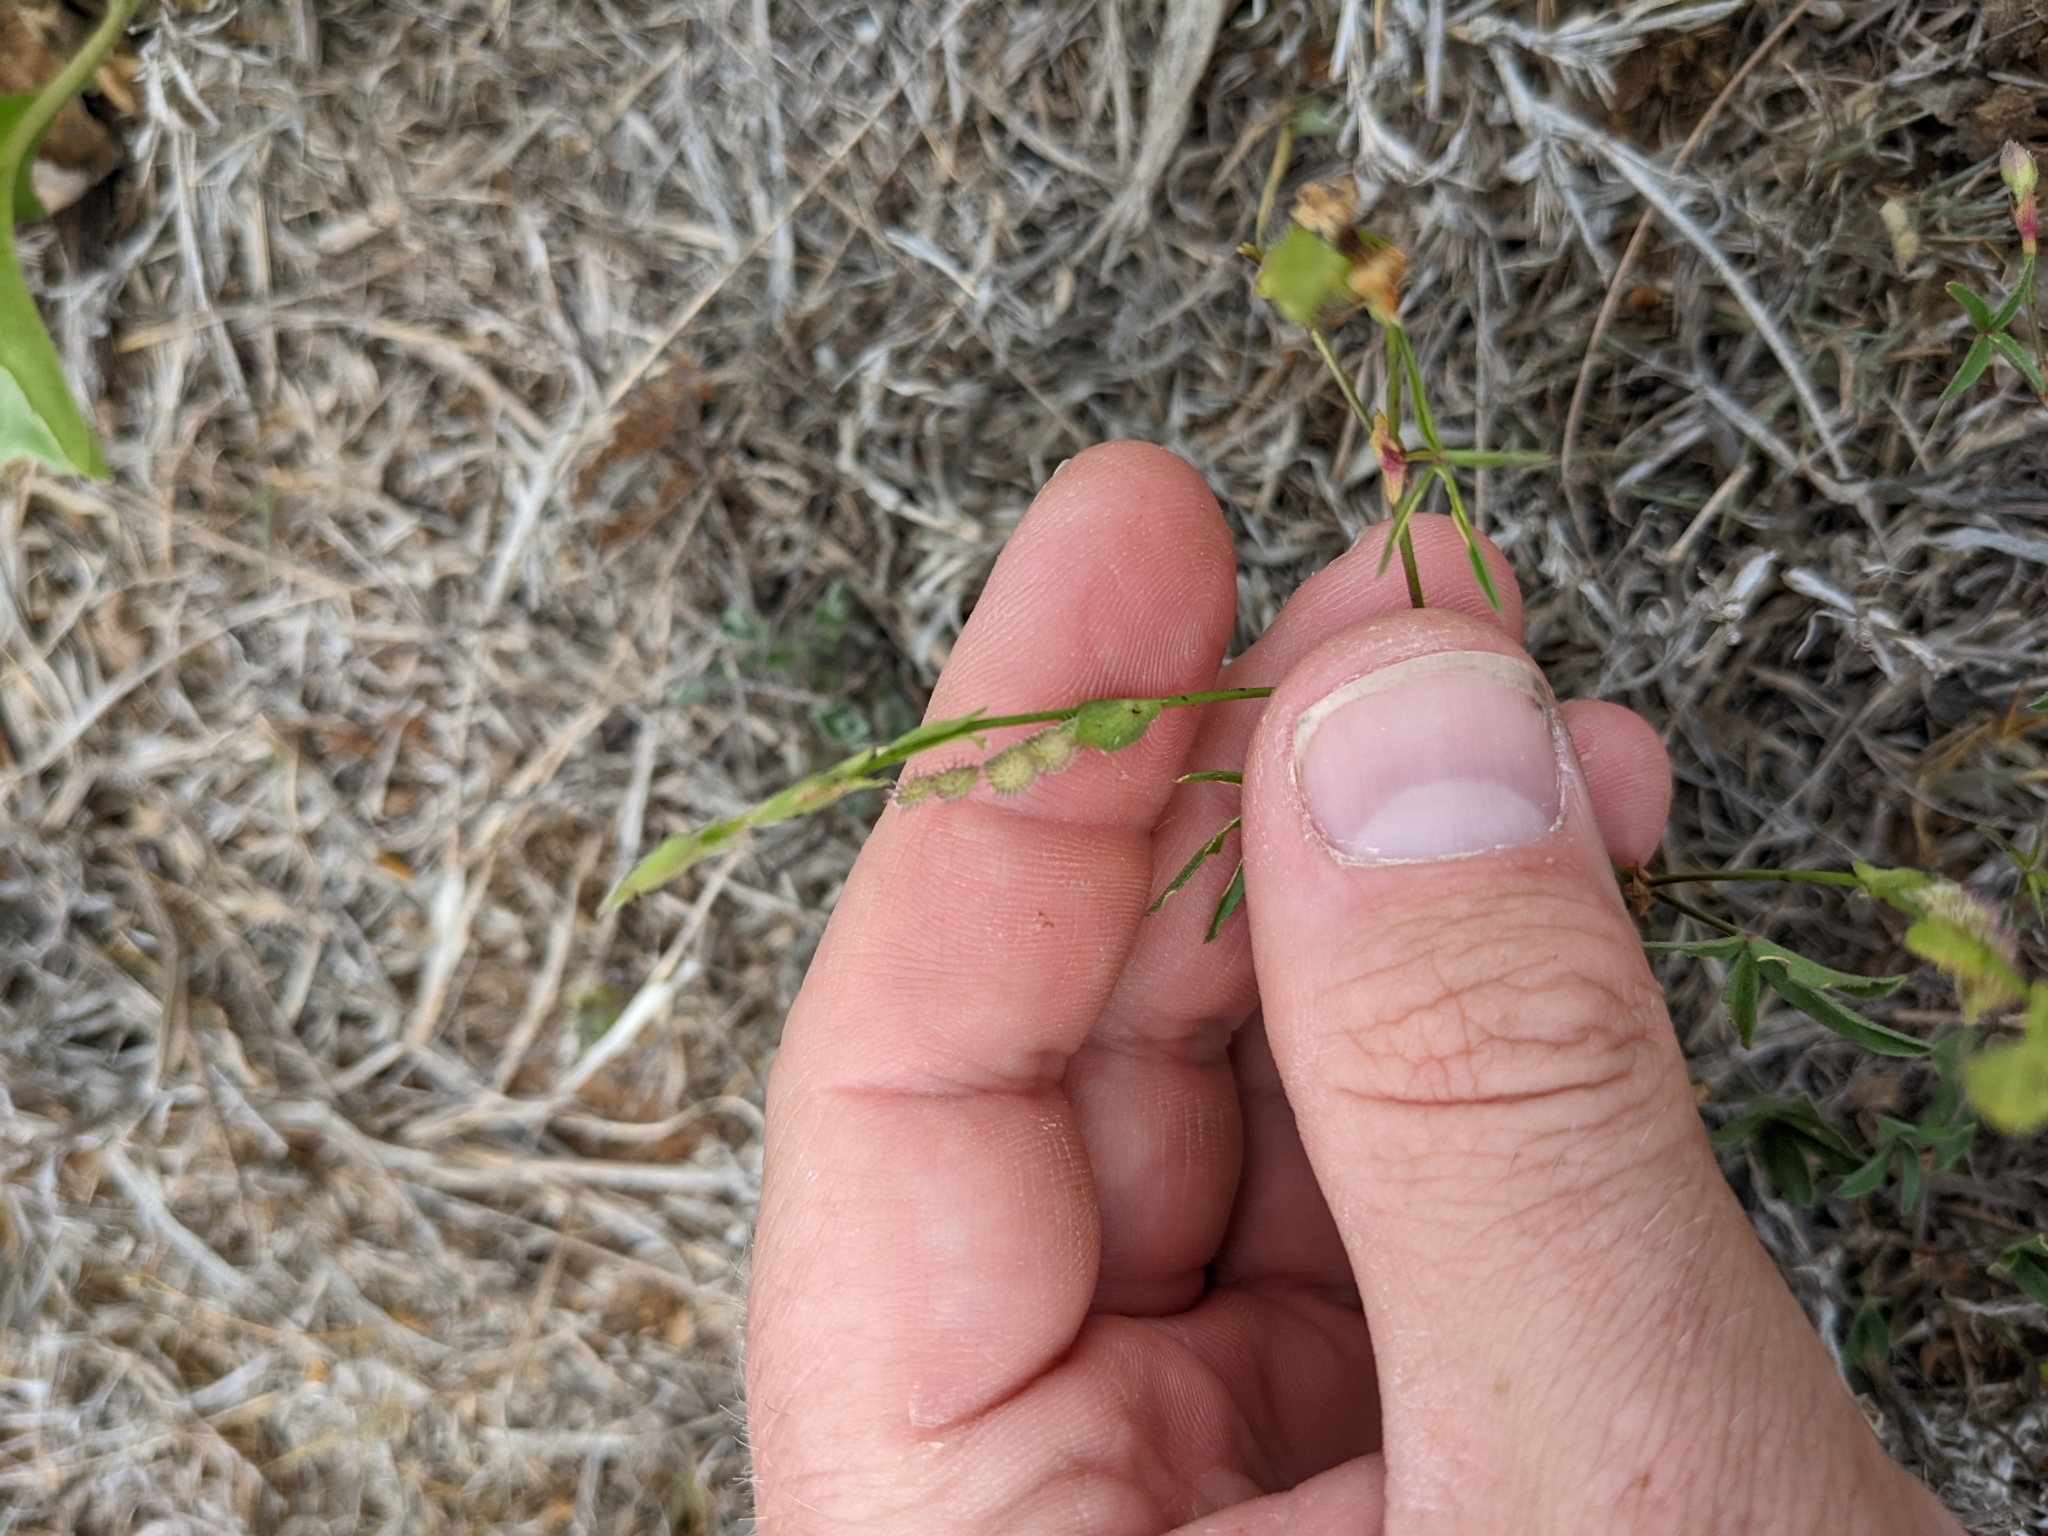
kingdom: Plantae
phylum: Tracheophyta
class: Magnoliopsida
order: Fabales
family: Fabaceae
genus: Zornia
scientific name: Zornia bracteata
